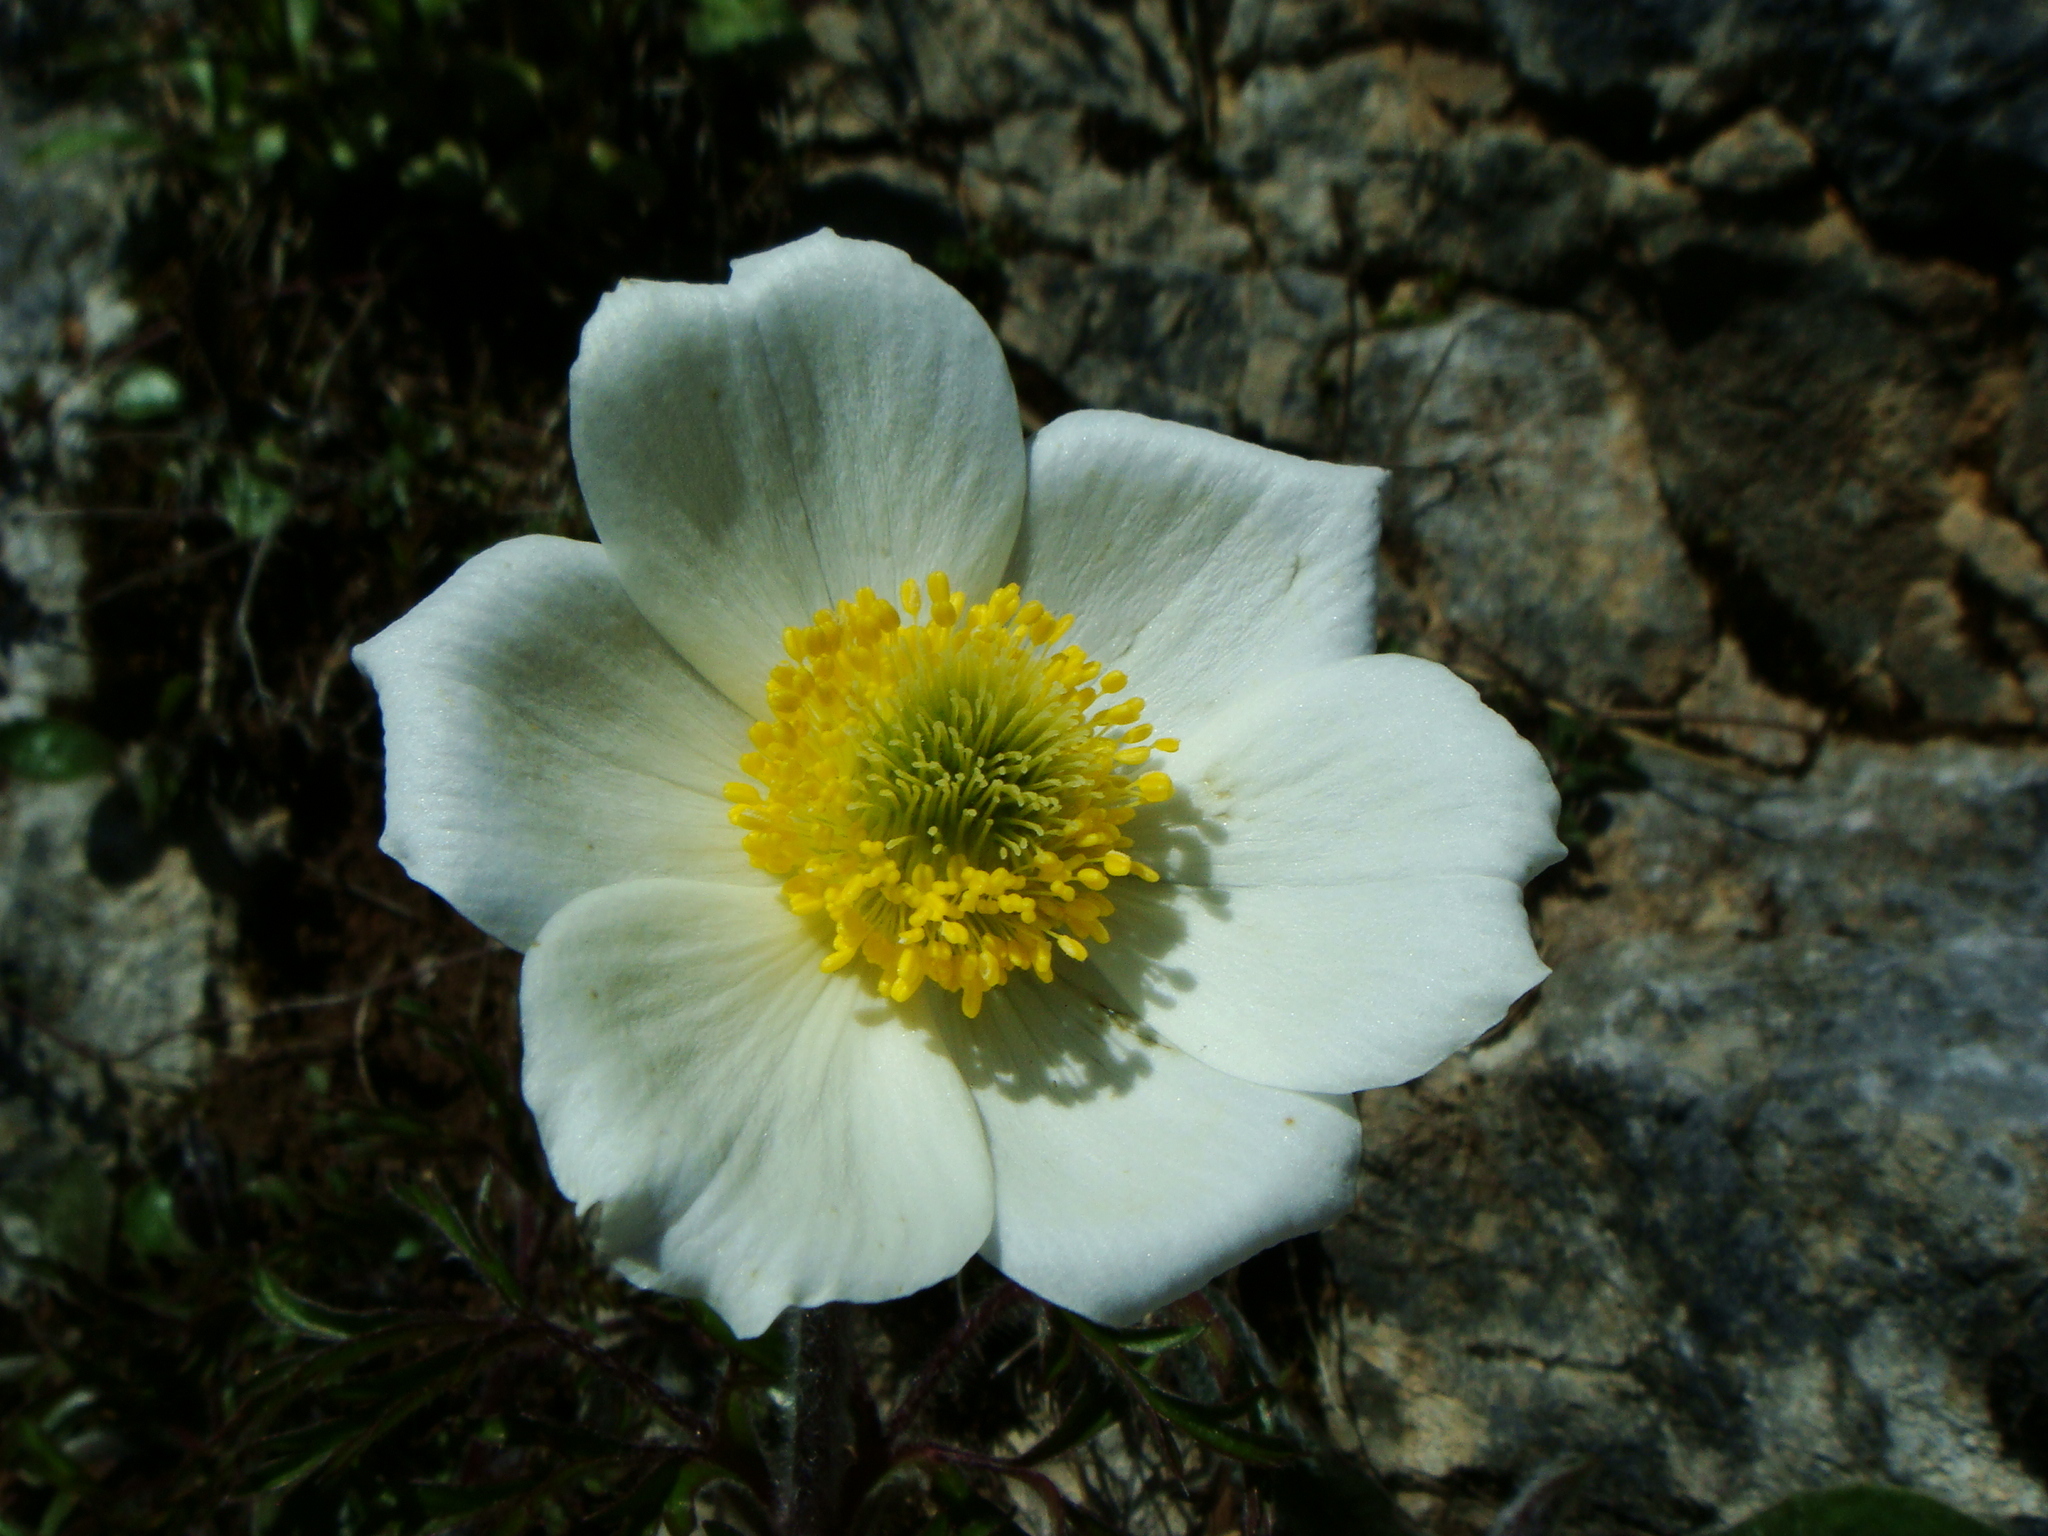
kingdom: Plantae
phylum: Tracheophyta
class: Magnoliopsida
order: Ranunculales
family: Ranunculaceae
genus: Pulsatilla
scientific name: Pulsatilla alpina
